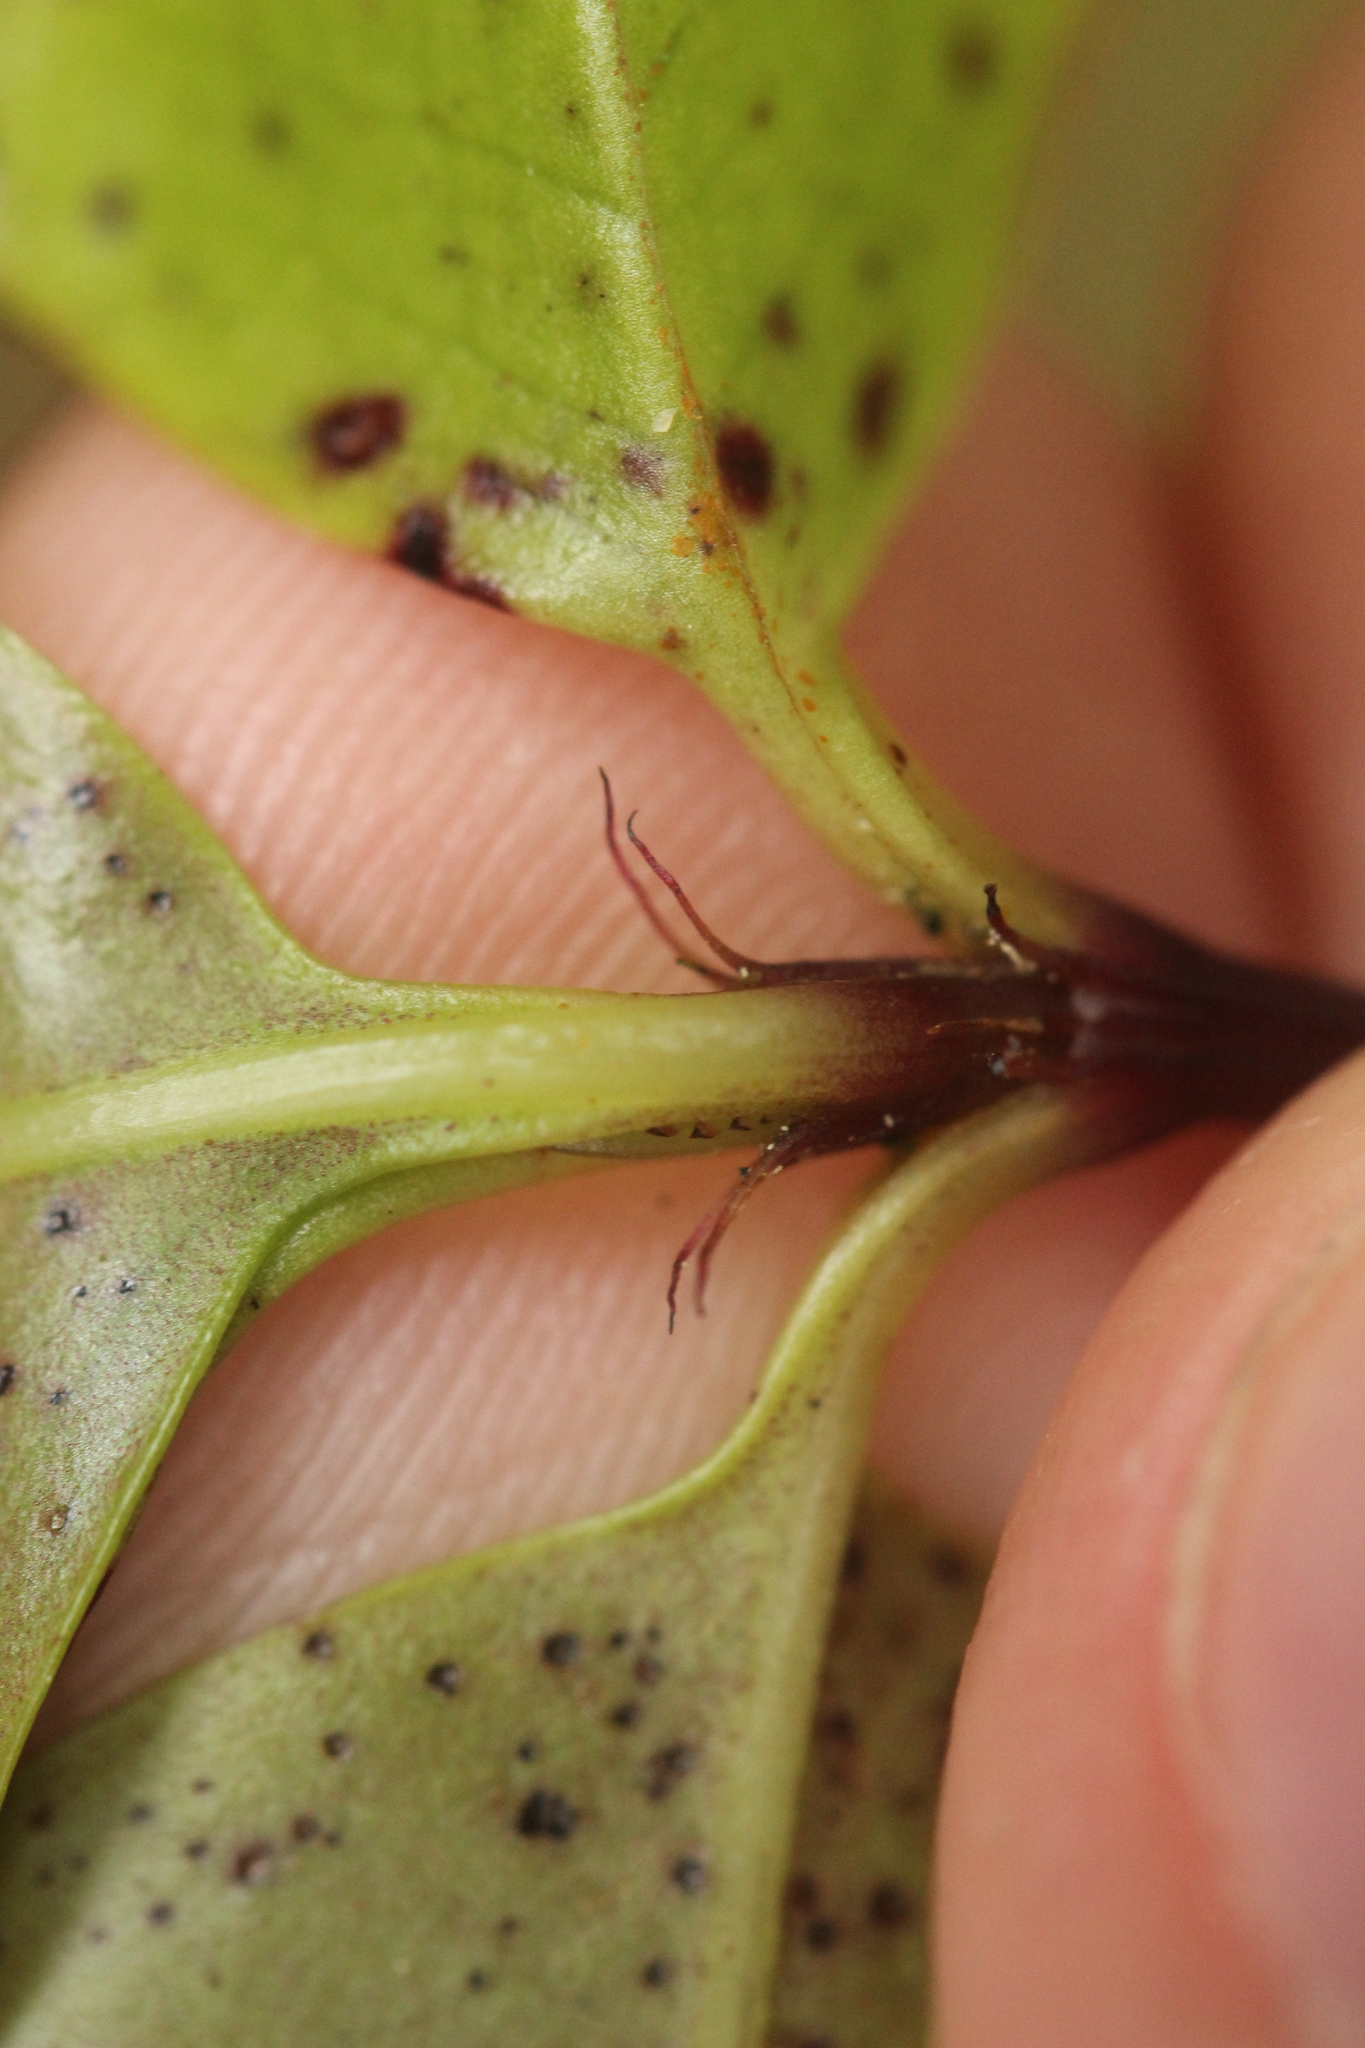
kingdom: Plantae
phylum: Tracheophyta
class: Magnoliopsida
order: Chloranthales
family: Chloranthaceae
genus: Ascarina
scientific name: Ascarina lucida
